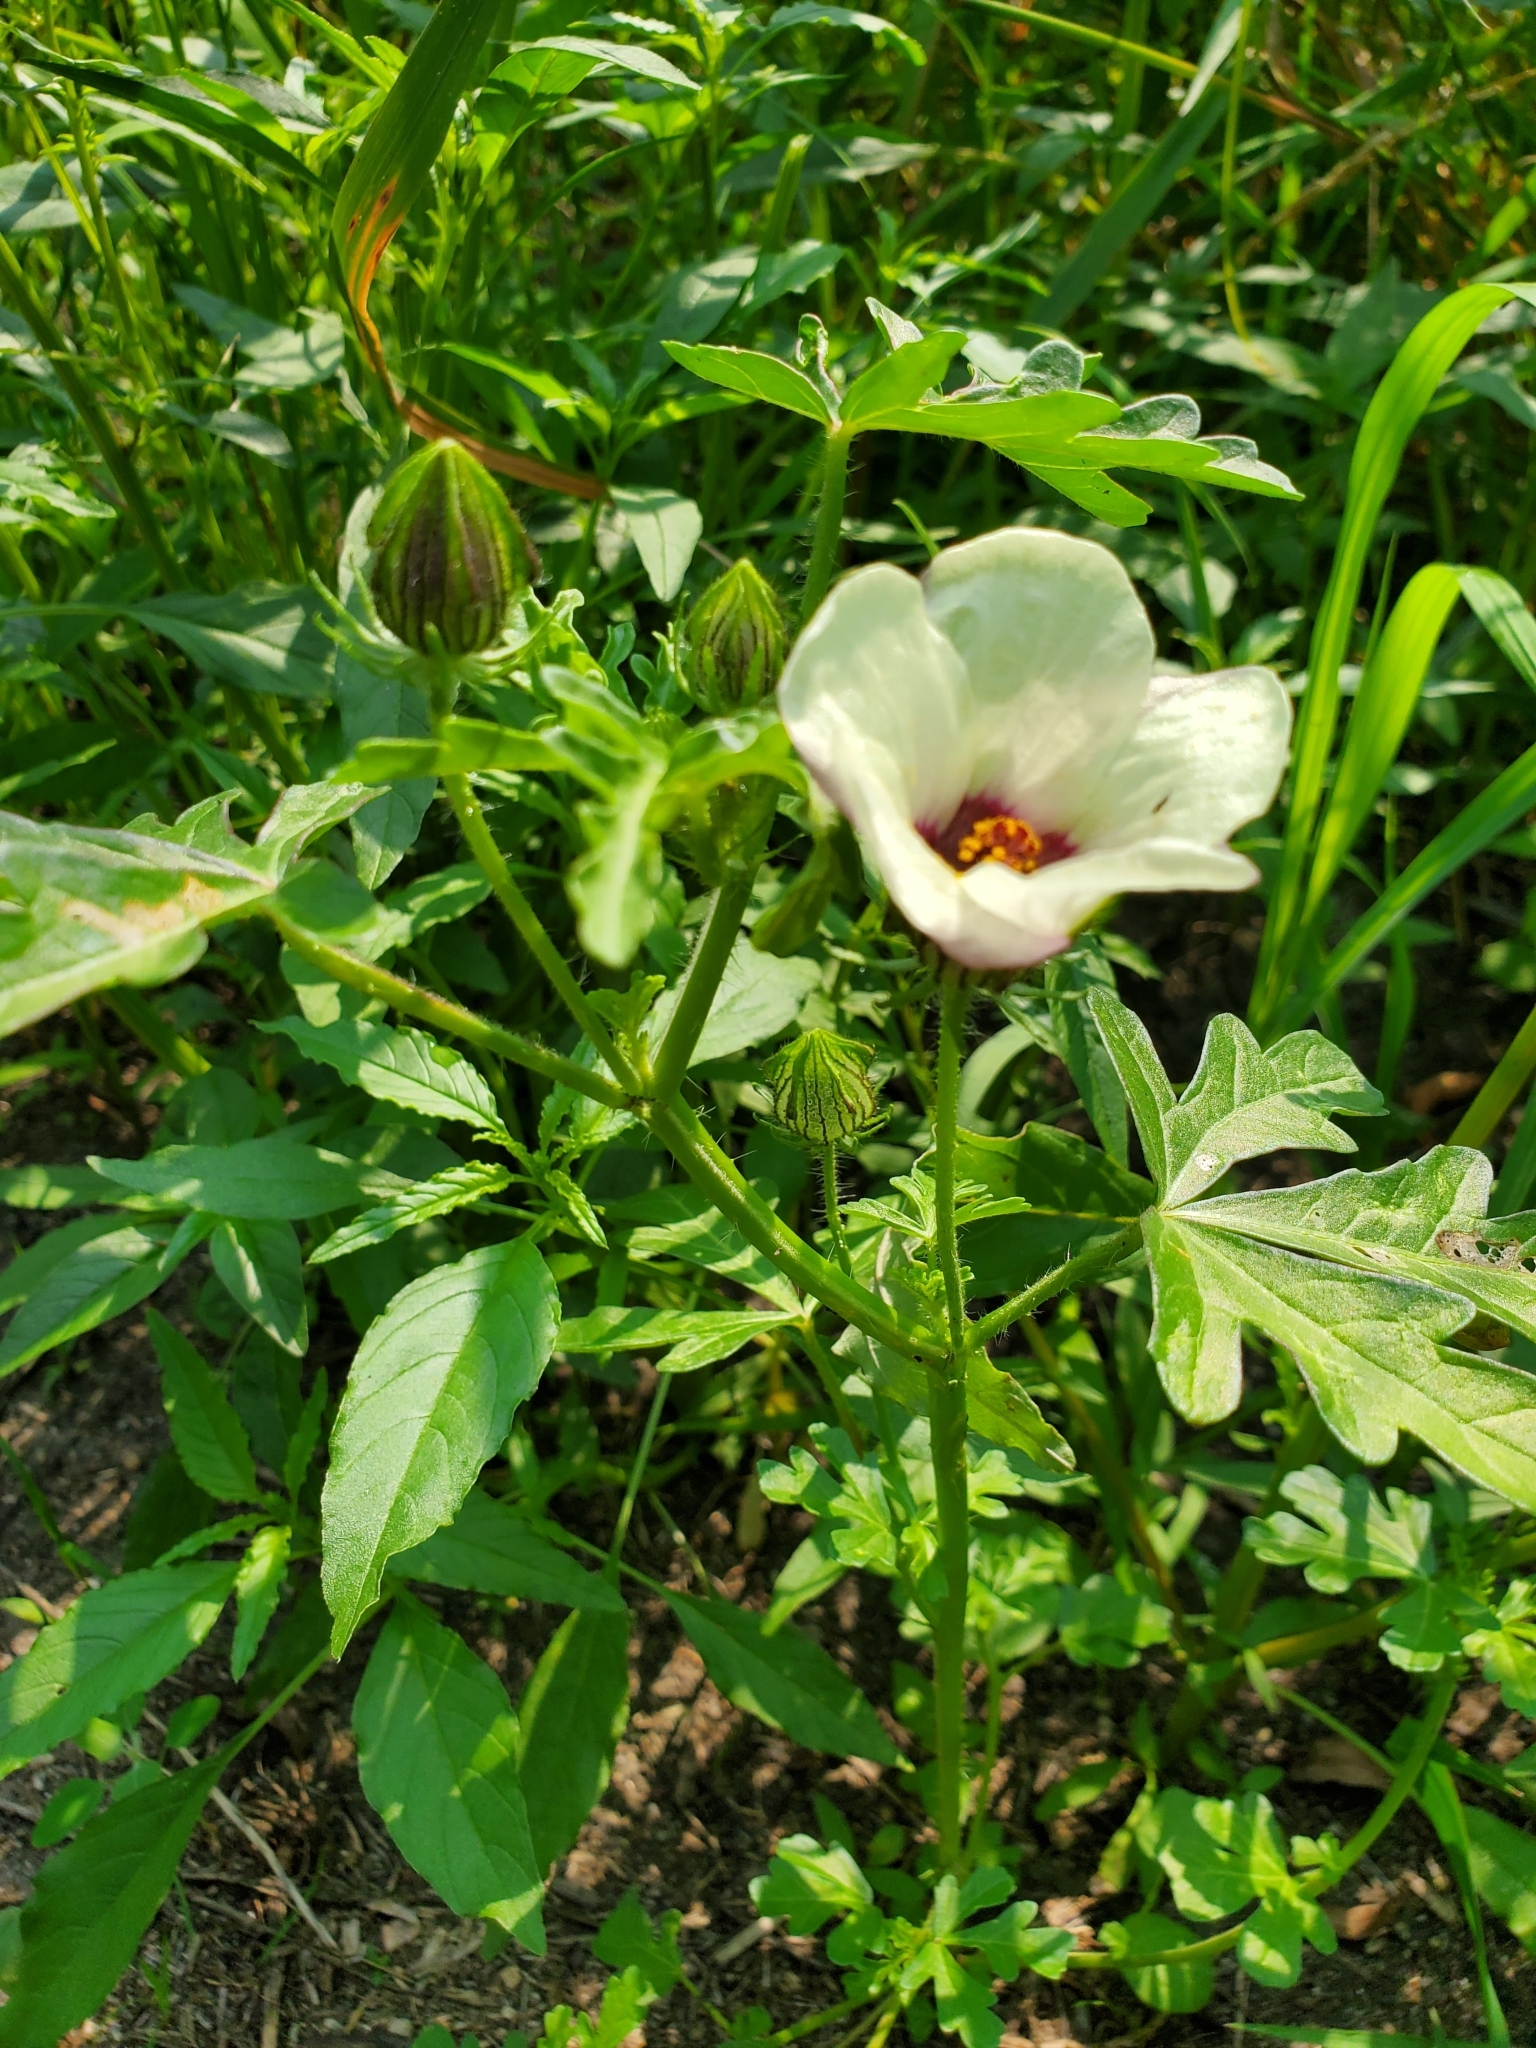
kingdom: Plantae
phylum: Tracheophyta
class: Magnoliopsida
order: Malvales
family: Malvaceae
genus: Hibiscus
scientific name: Hibiscus trionum
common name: Bladder ketmia
